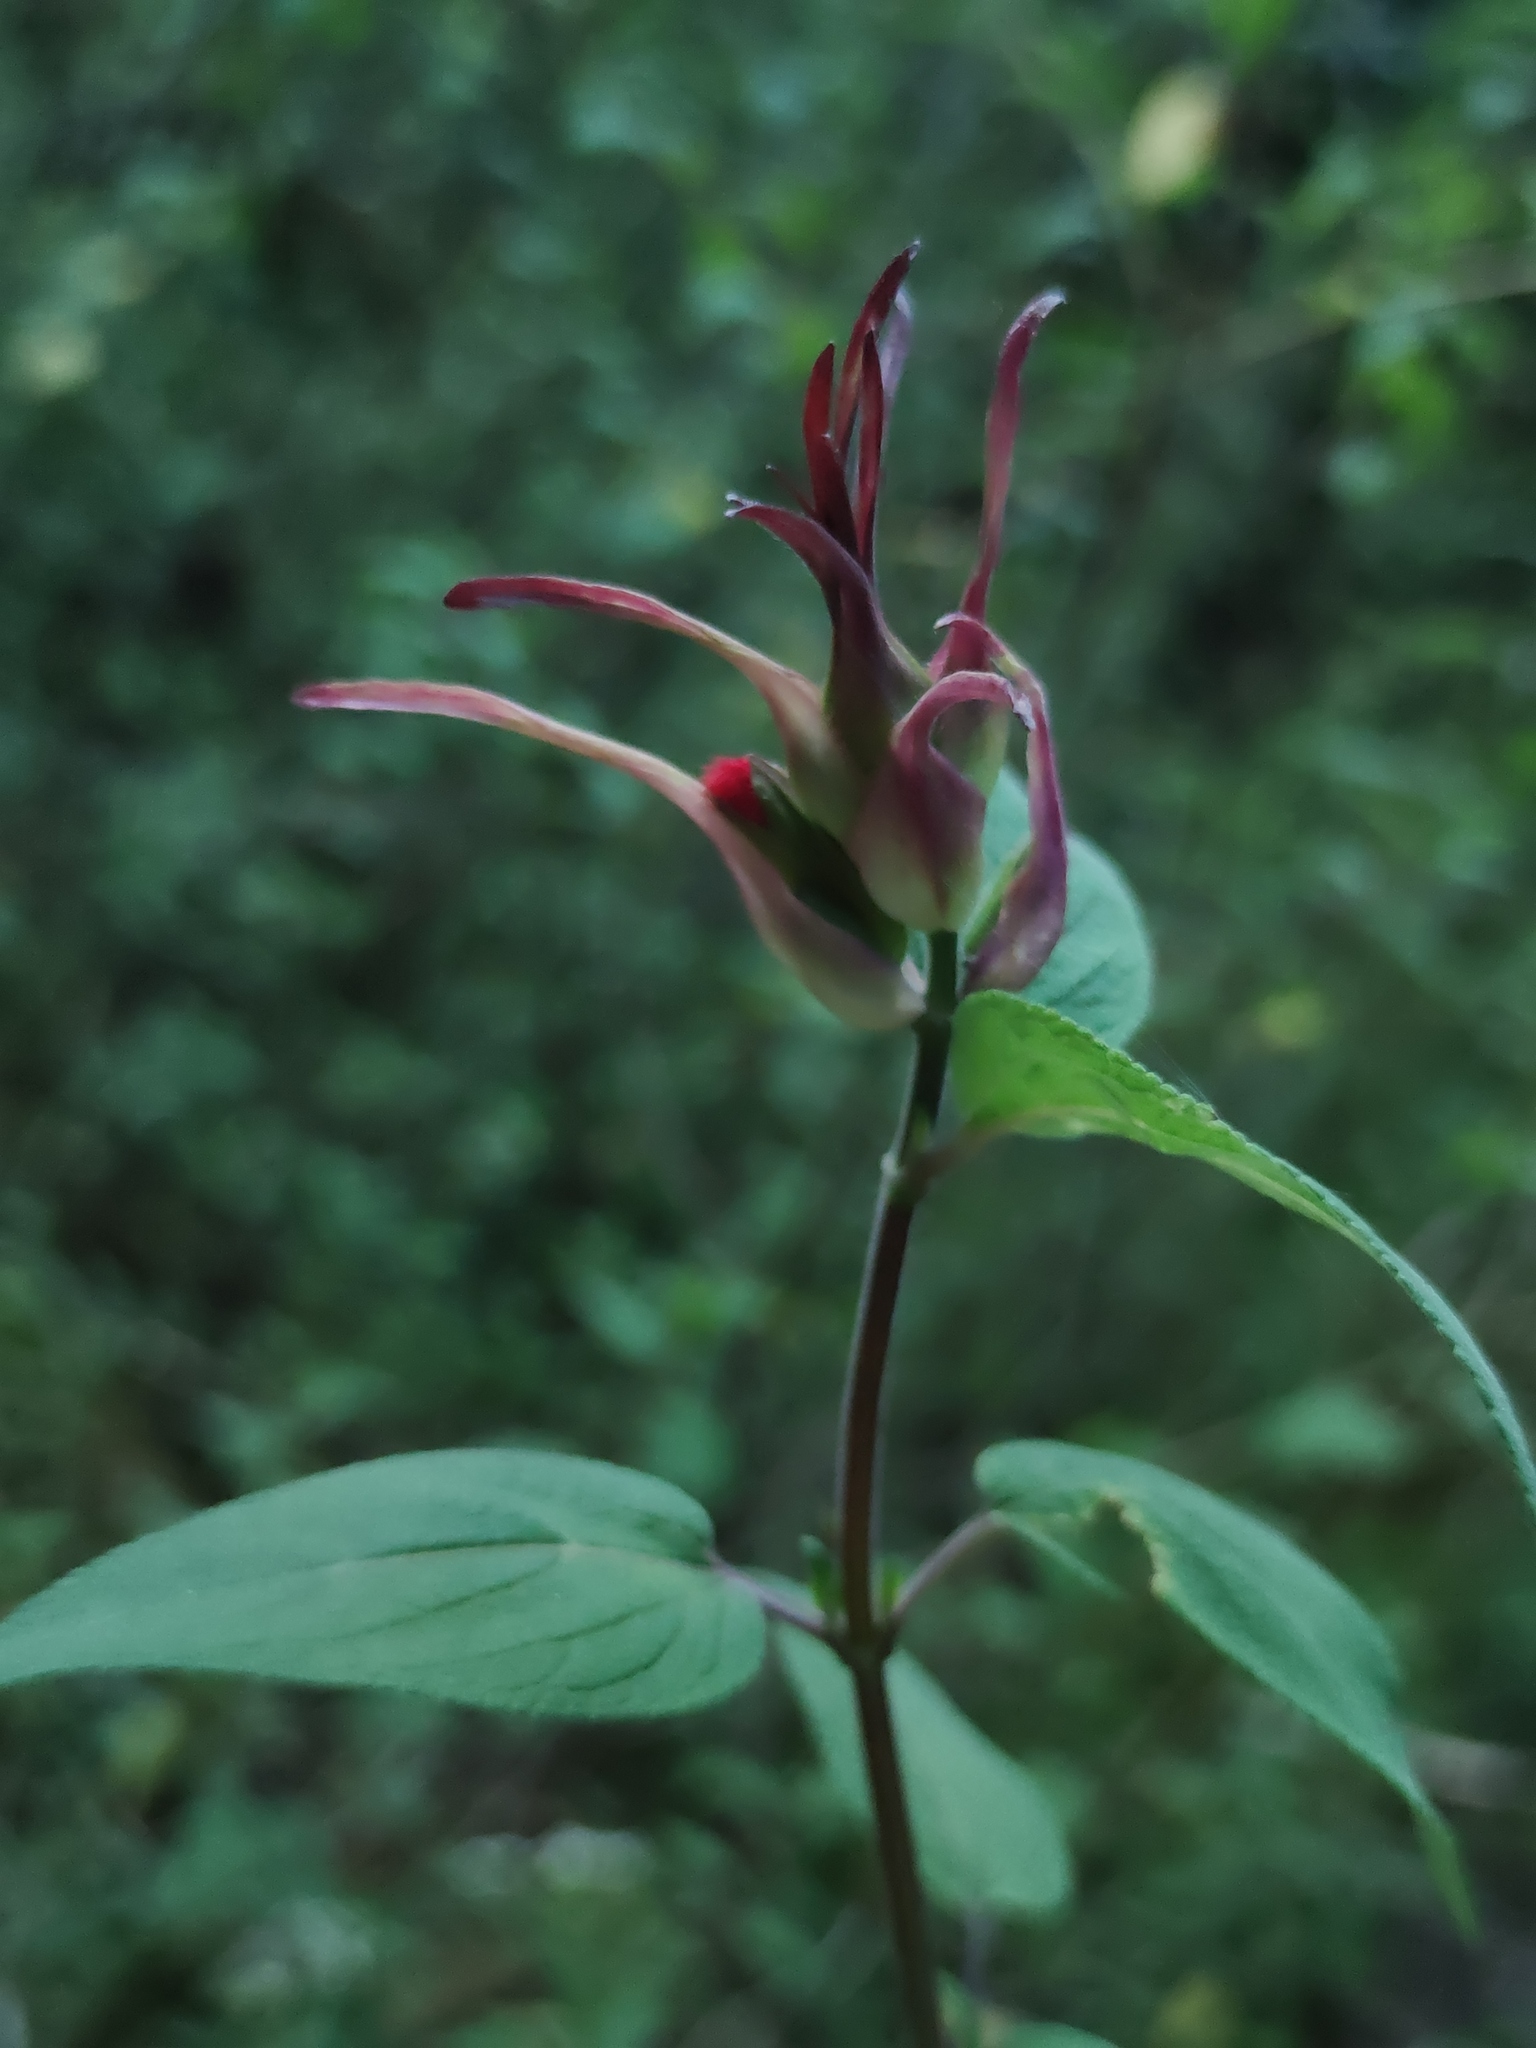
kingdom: Plantae
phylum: Tracheophyta
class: Magnoliopsida
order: Lamiales
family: Lamiaceae
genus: Salvia
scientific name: Salvia fulgens
